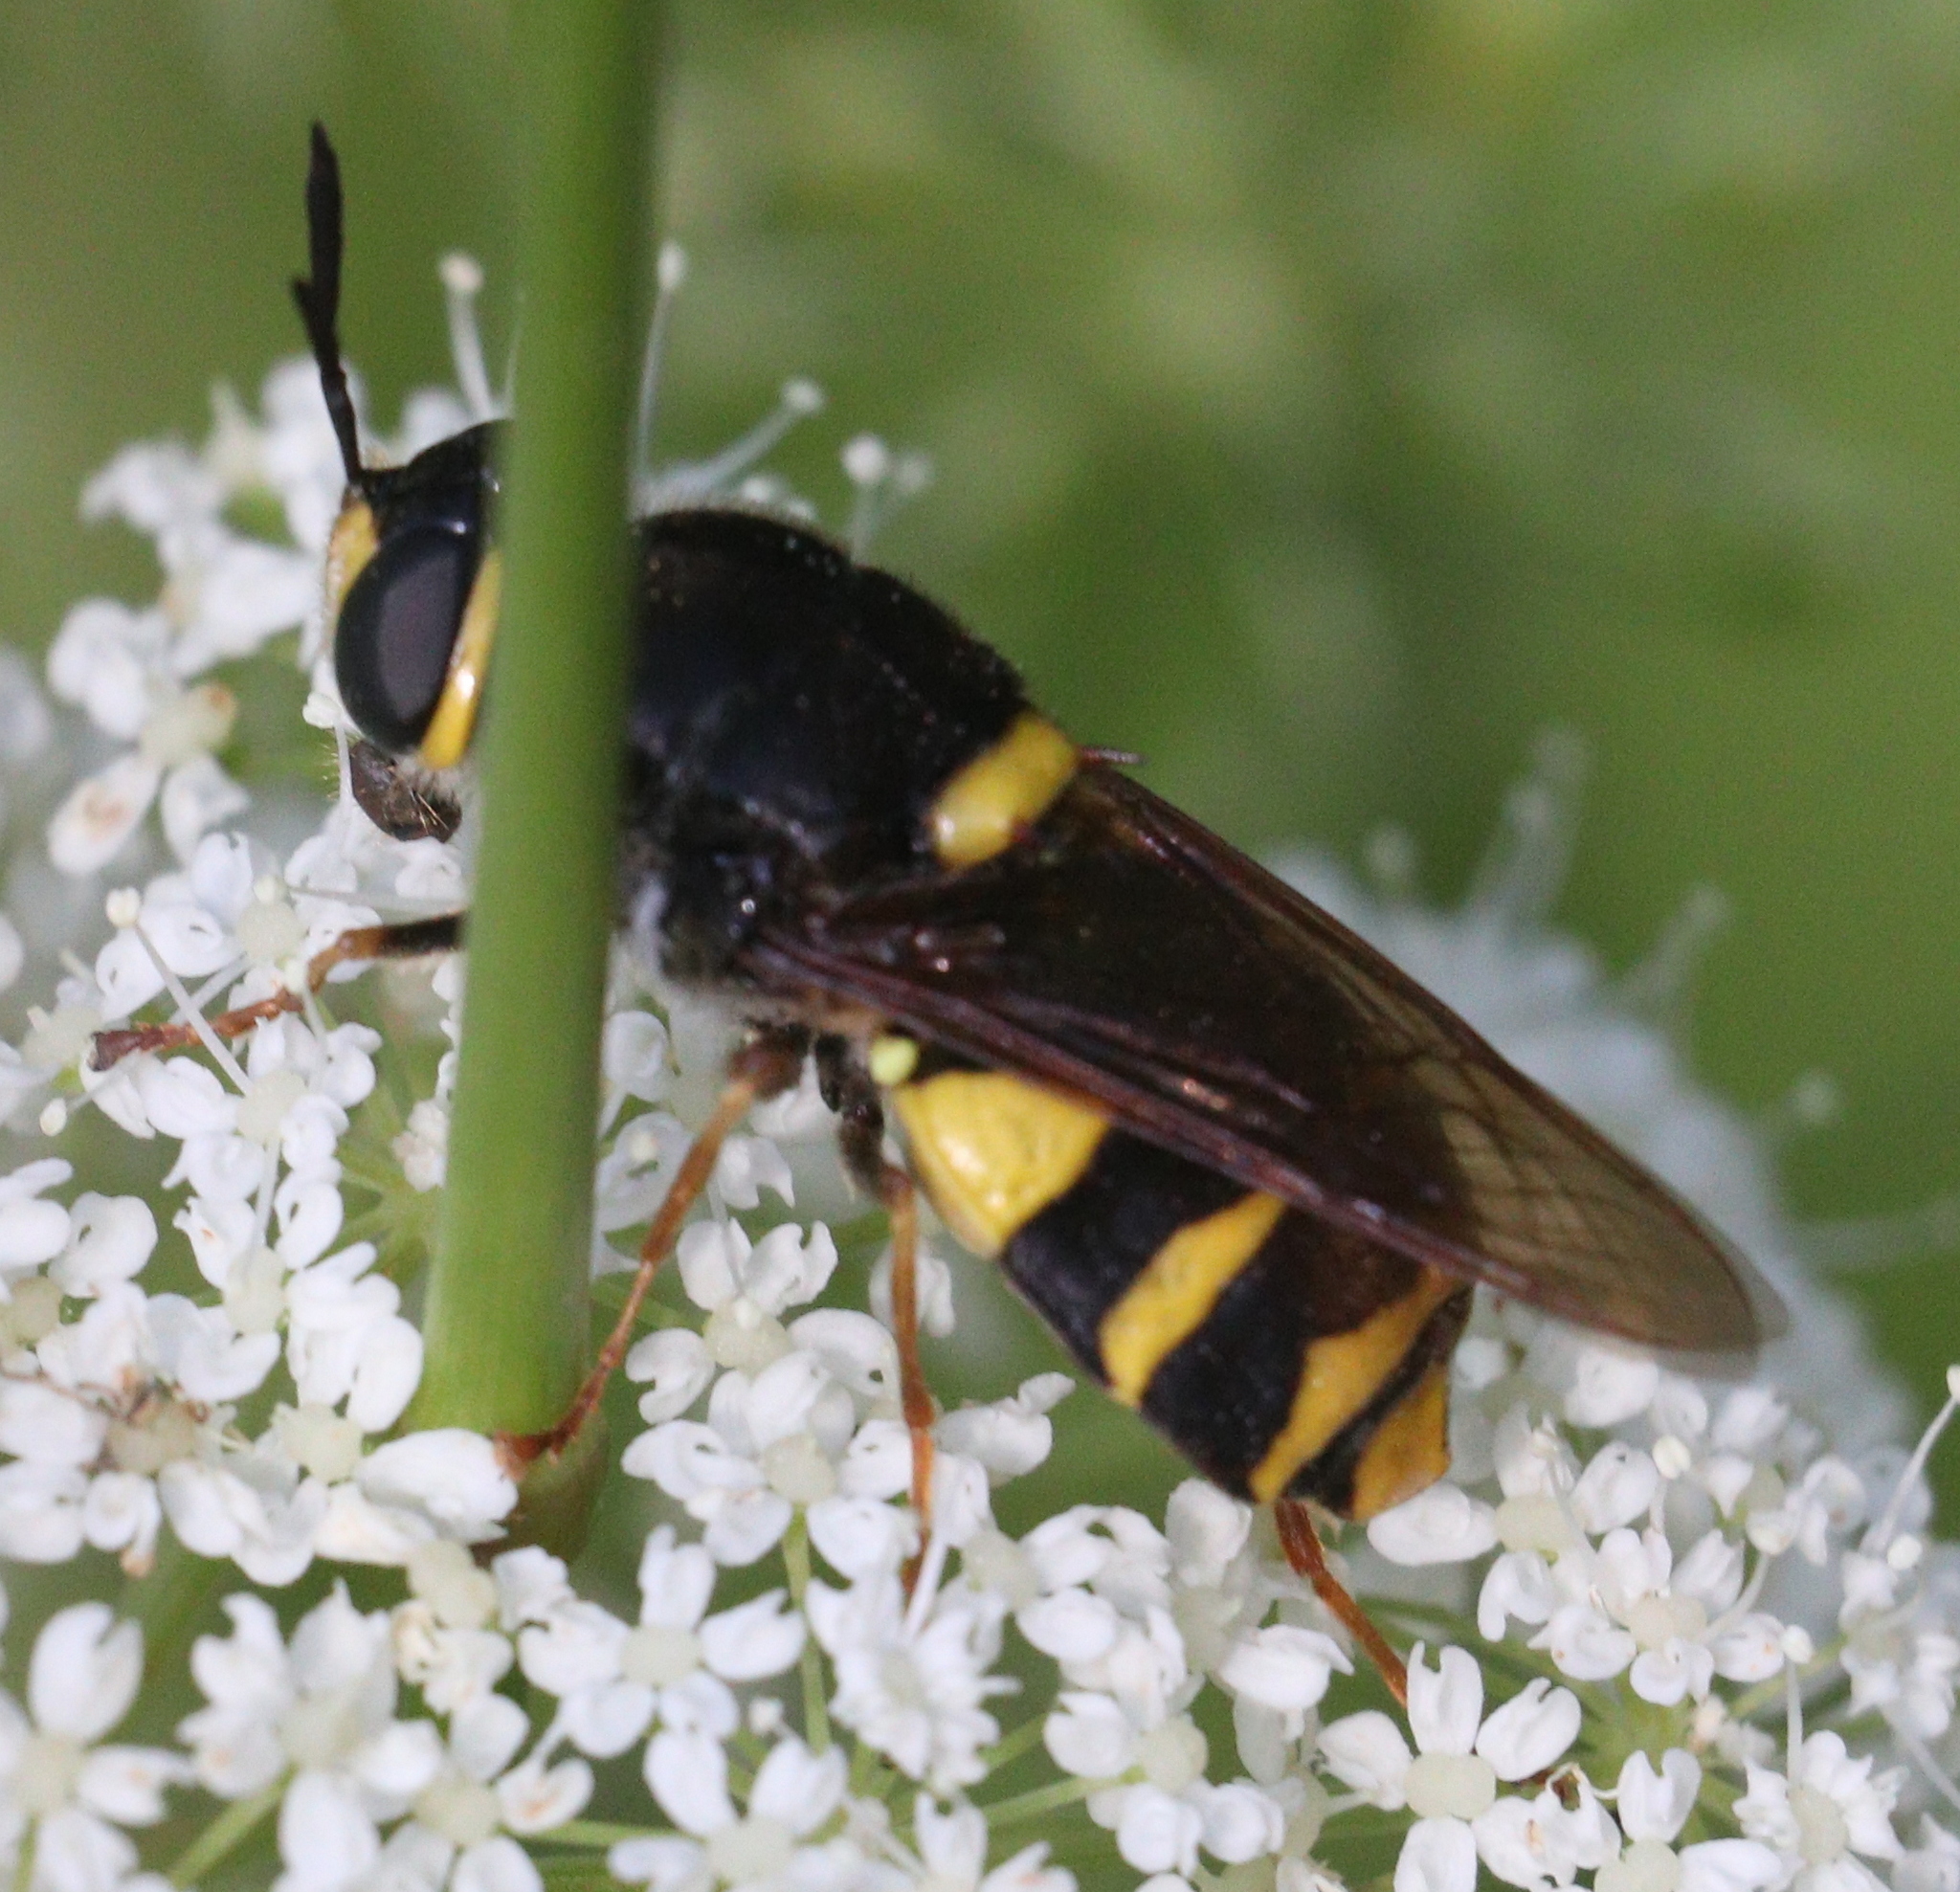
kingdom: Animalia
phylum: Arthropoda
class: Insecta
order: Diptera
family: Stratiomyidae
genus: Stratiomys
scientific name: Stratiomys potamida
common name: Banded general
